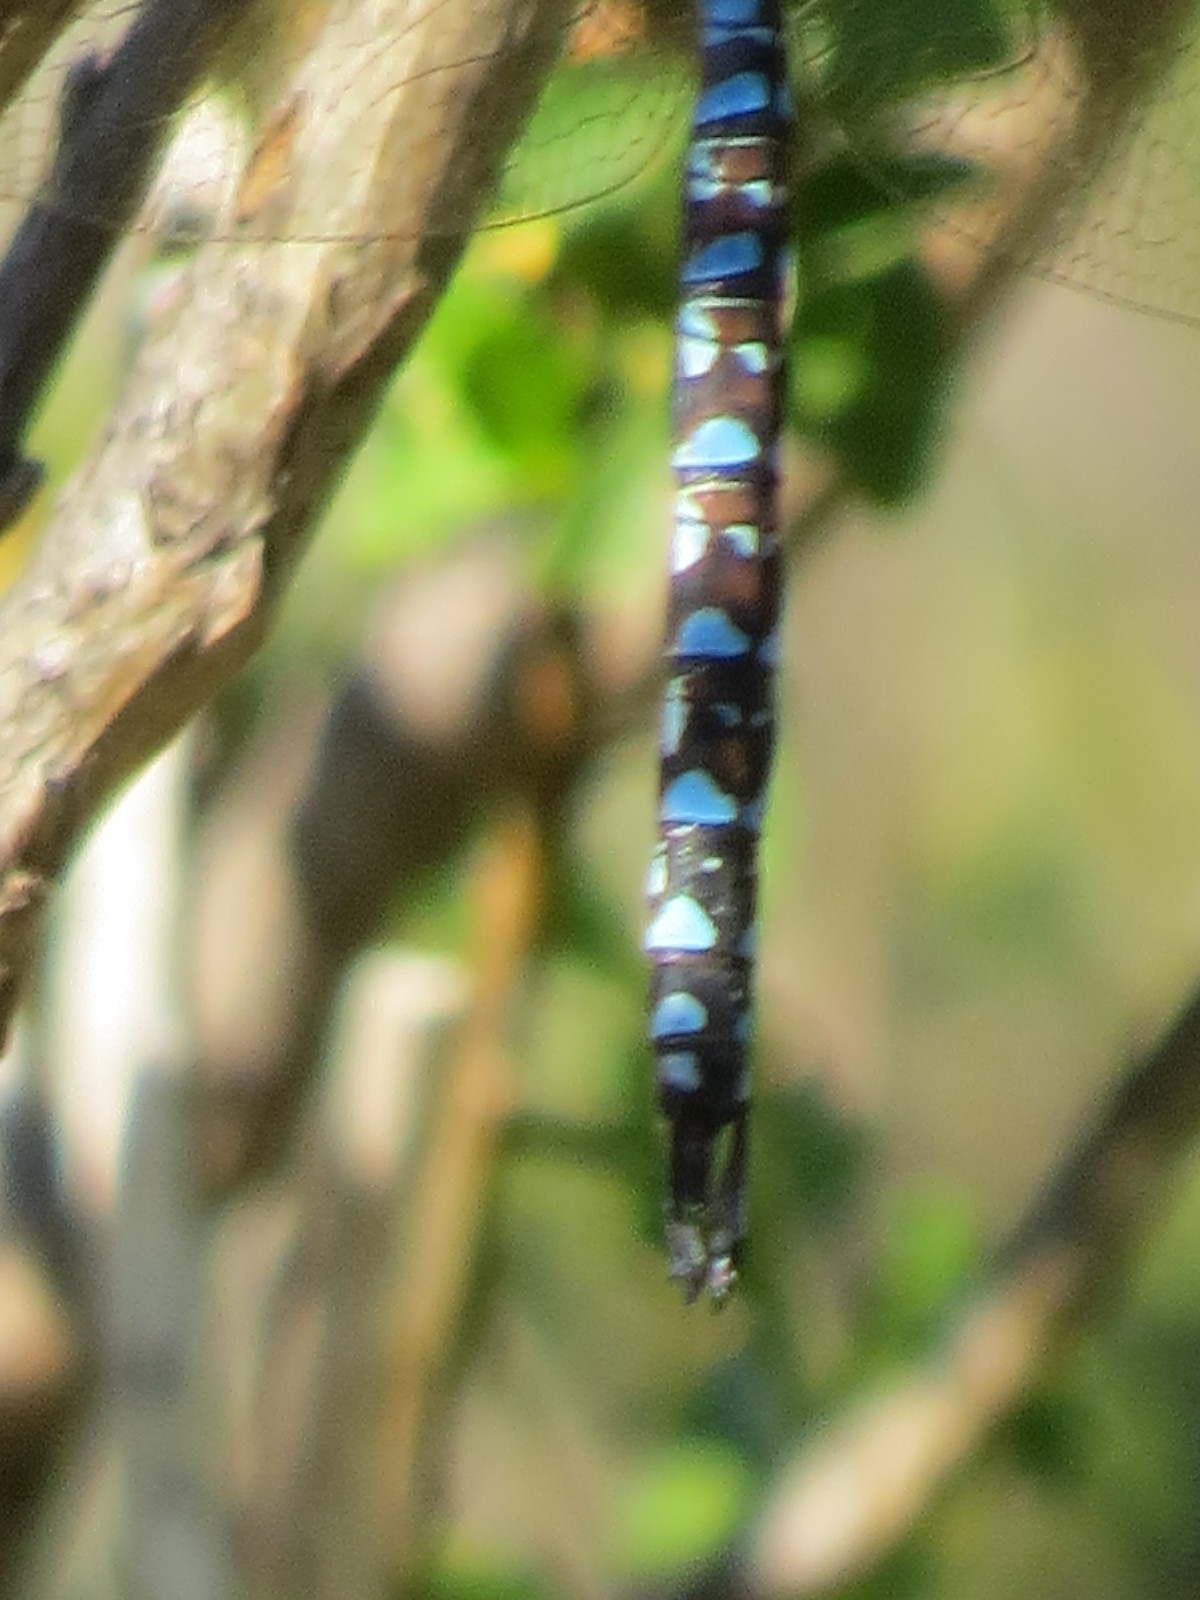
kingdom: Animalia
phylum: Arthropoda
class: Insecta
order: Odonata
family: Aeshnidae
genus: Rhionaeschna
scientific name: Rhionaeschna multicolor
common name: Blue-eyed darner
